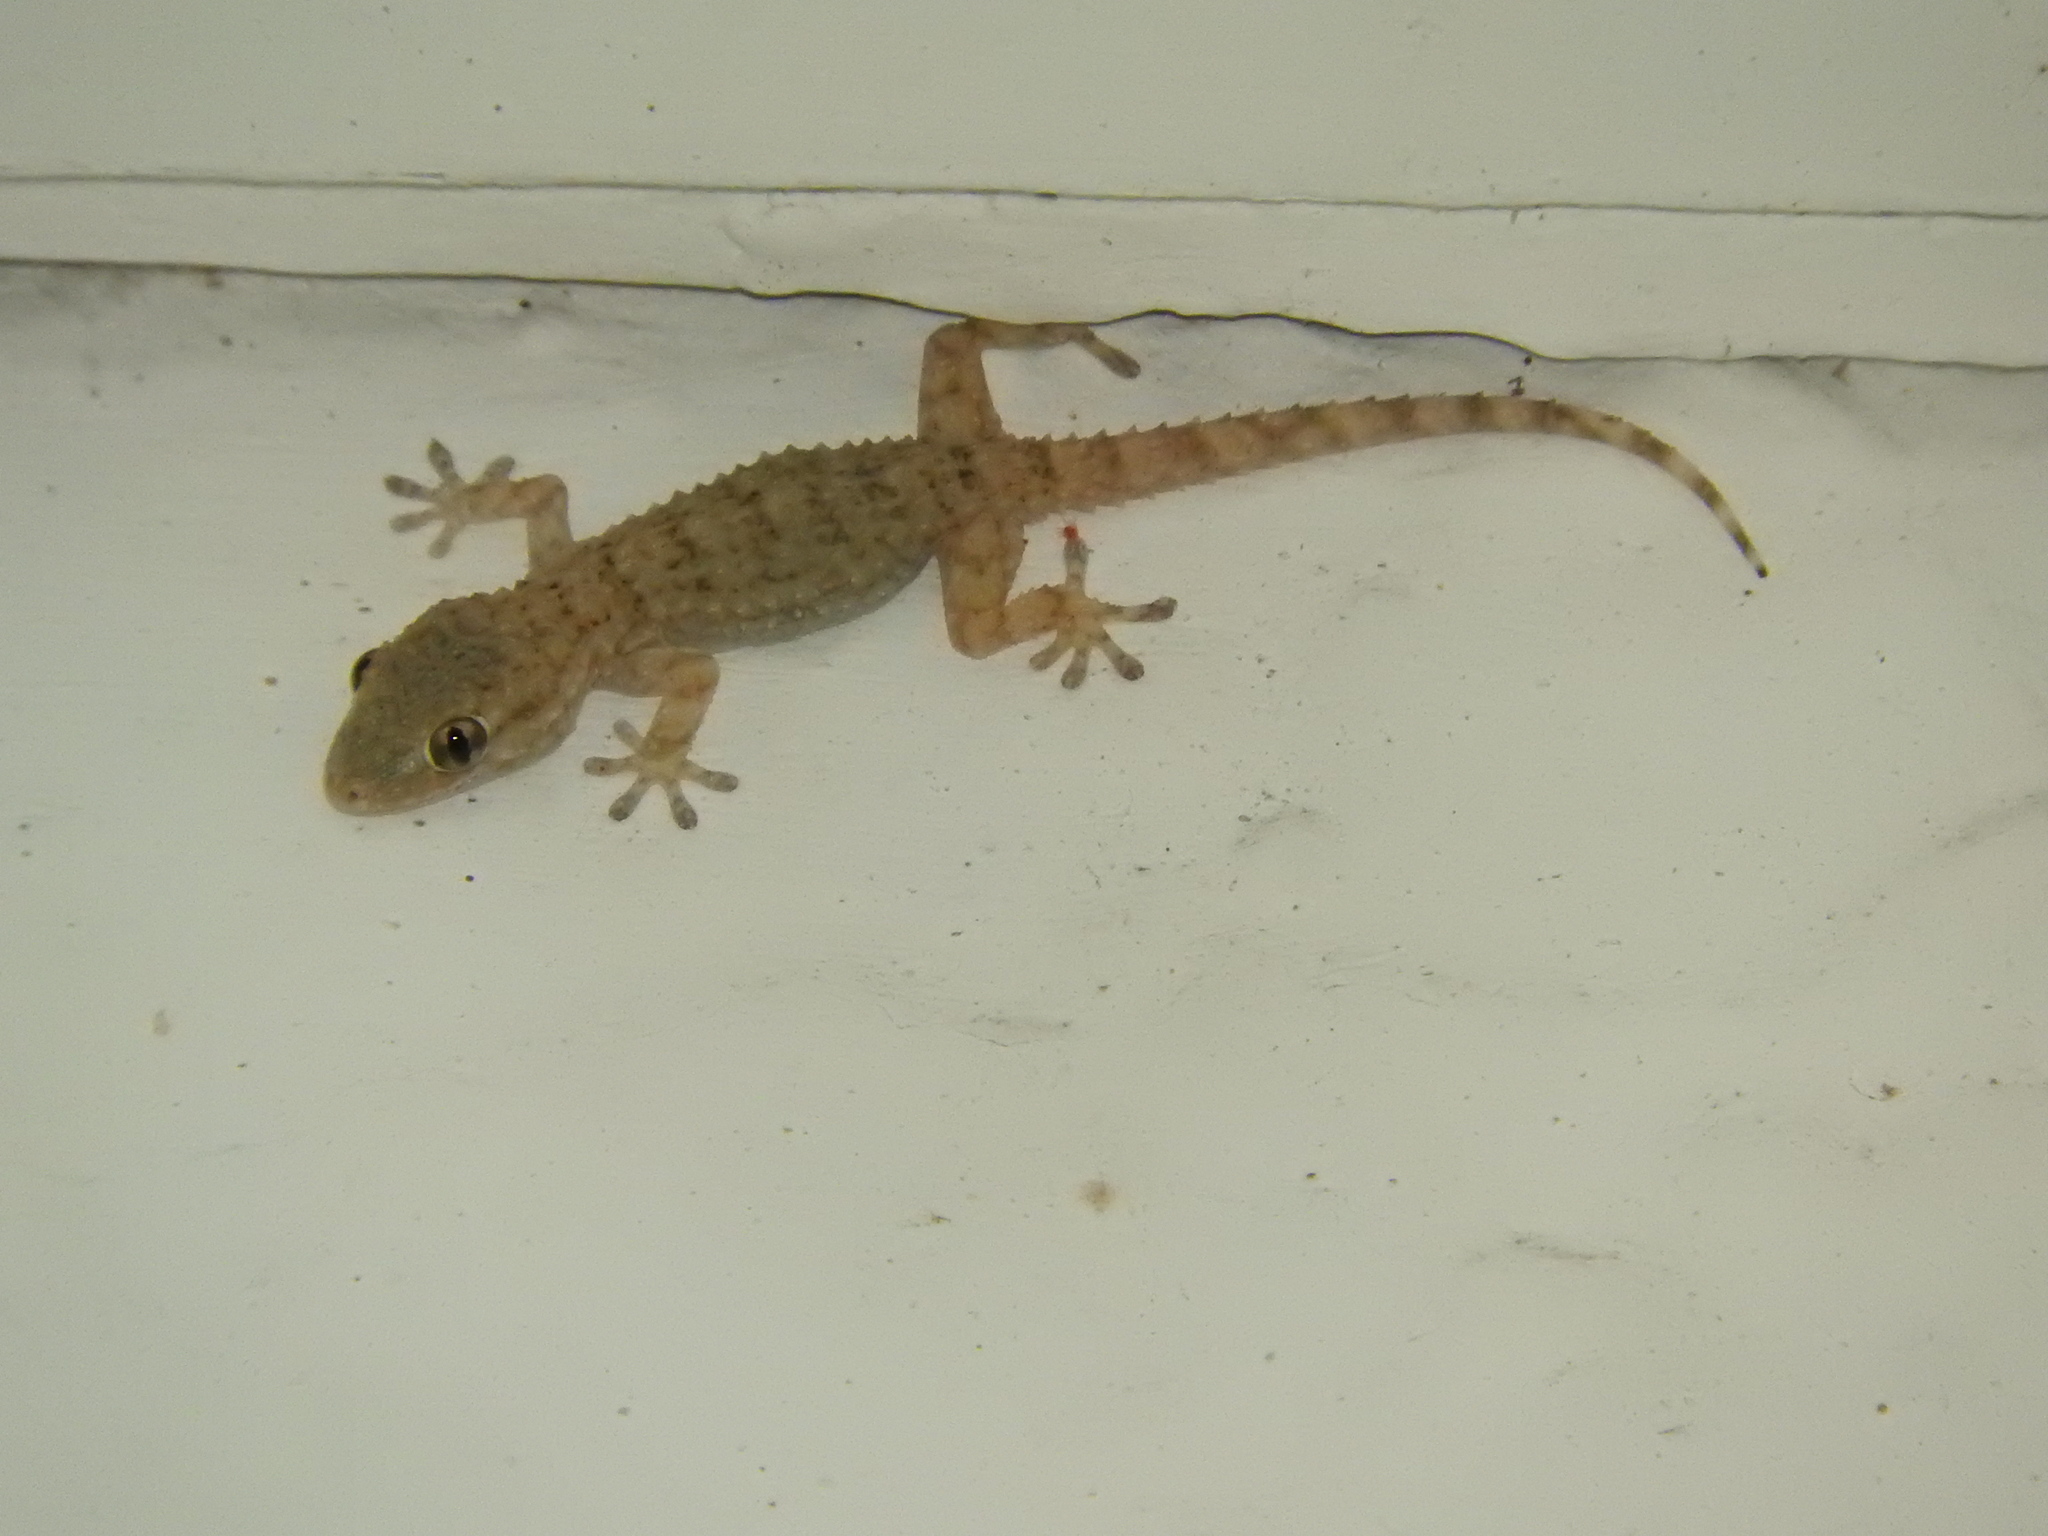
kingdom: Animalia
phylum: Chordata
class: Squamata
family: Phyllodactylidae
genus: Tarentola
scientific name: Tarentola mauritanica
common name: Moorish gecko
